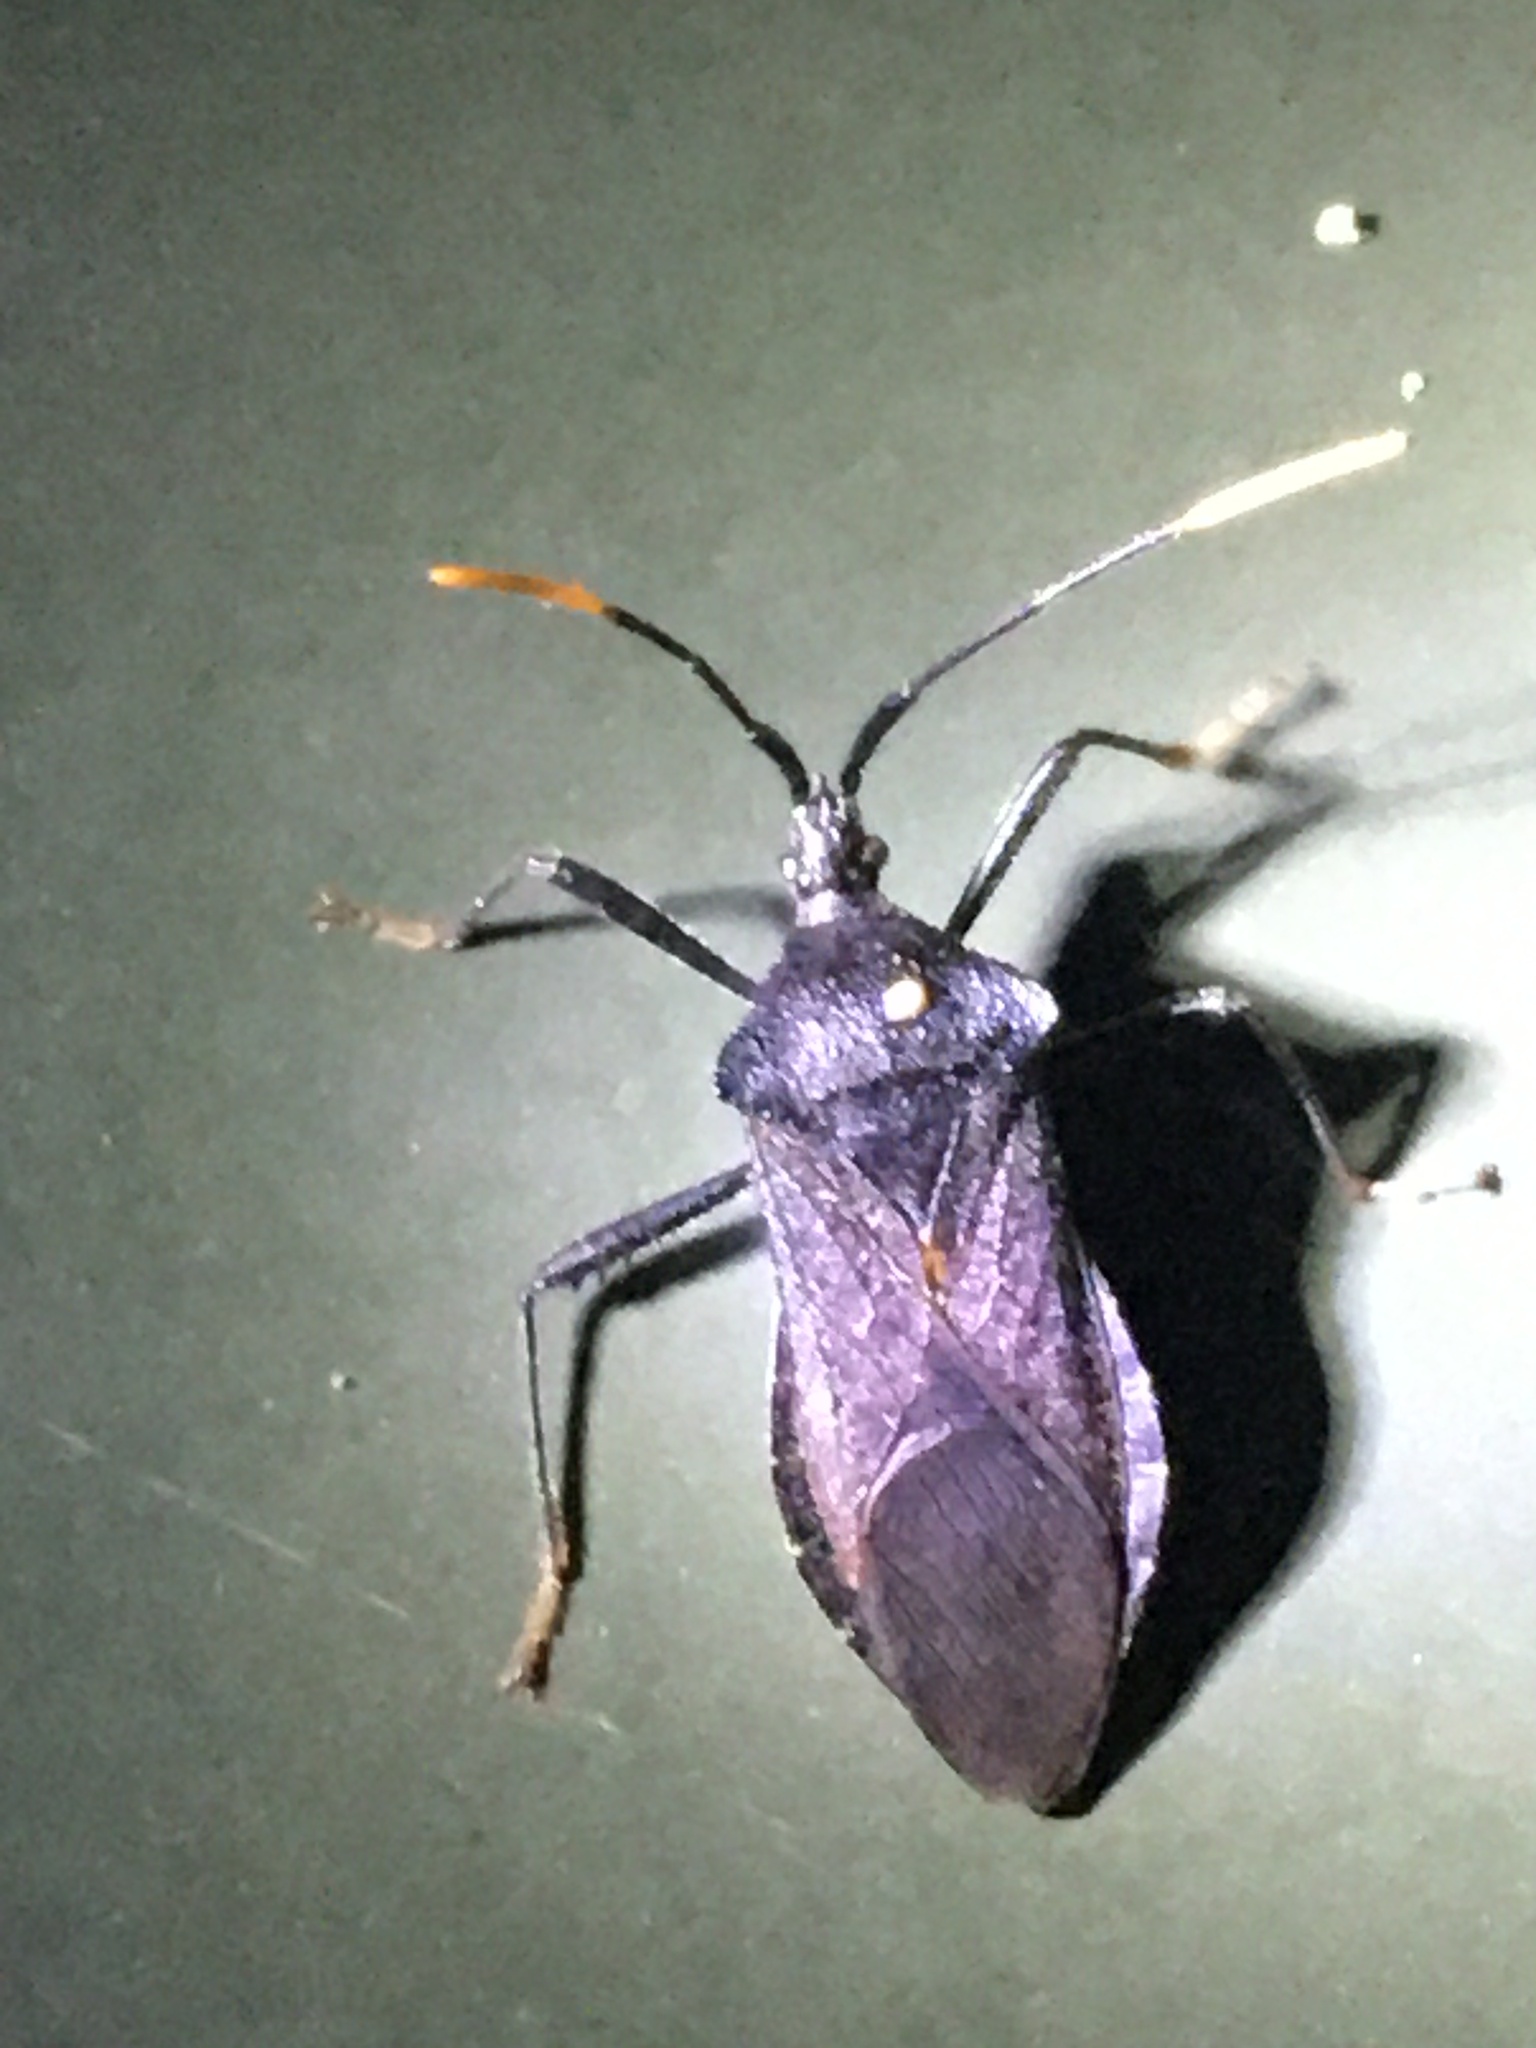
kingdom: Animalia
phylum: Arthropoda
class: Insecta
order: Hemiptera
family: Coreidae
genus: Acanthocephala
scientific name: Acanthocephala terminalis
